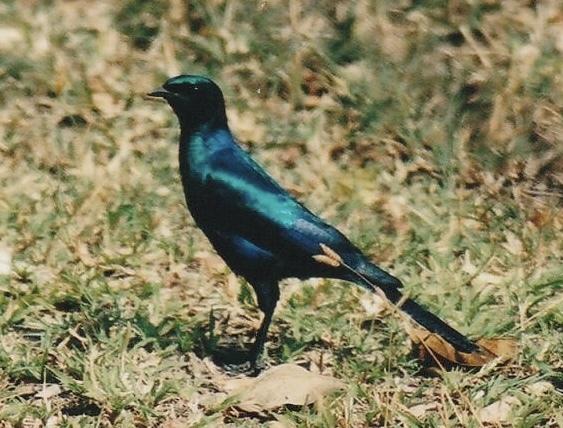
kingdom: Animalia
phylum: Chordata
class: Aves
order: Passeriformes
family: Sturnidae
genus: Lamprotornis
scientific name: Lamprotornis australis
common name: Burchell's starling
